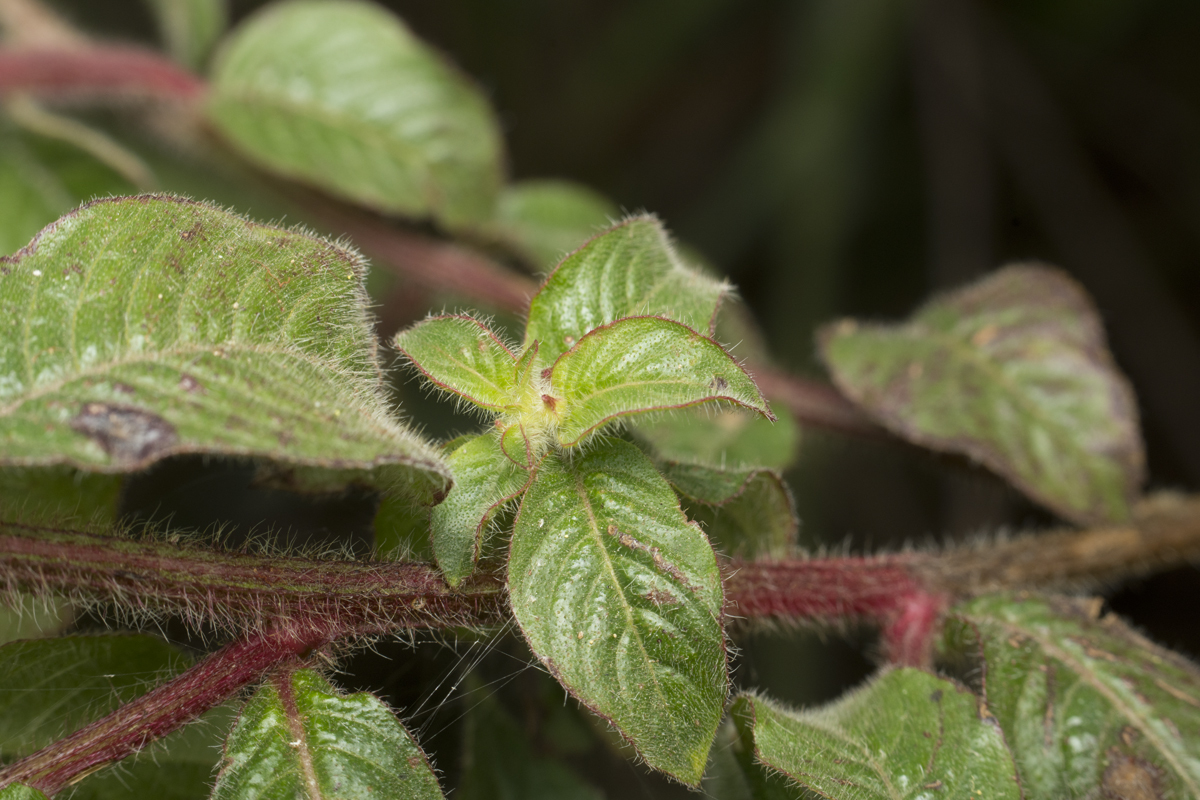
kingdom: Plantae
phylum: Tracheophyta
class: Magnoliopsida
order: Myrtales
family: Onagraceae
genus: Ludwigia
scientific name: Ludwigia octovalvis
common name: Water-primrose
